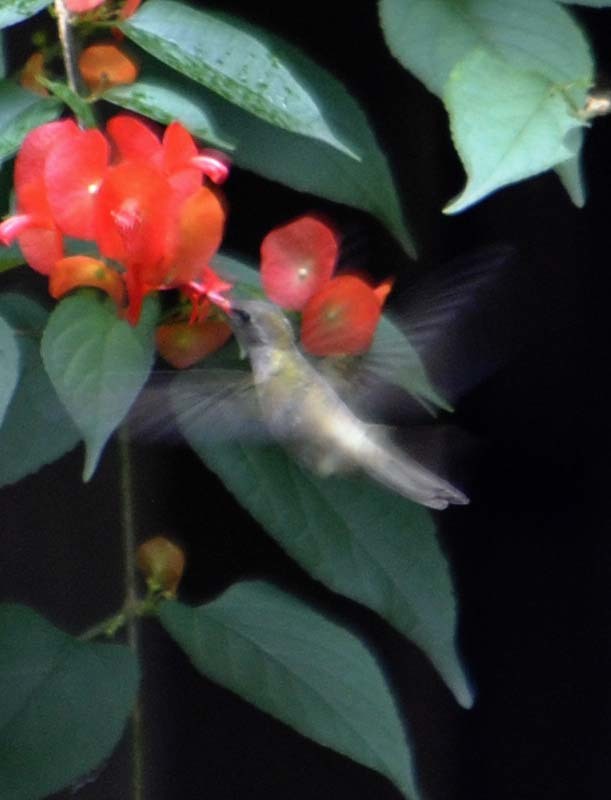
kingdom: Animalia
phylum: Chordata
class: Aves
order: Apodiformes
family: Trochilidae
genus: Phaeoptila
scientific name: Phaeoptila sordida
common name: Dusky hummingbird
